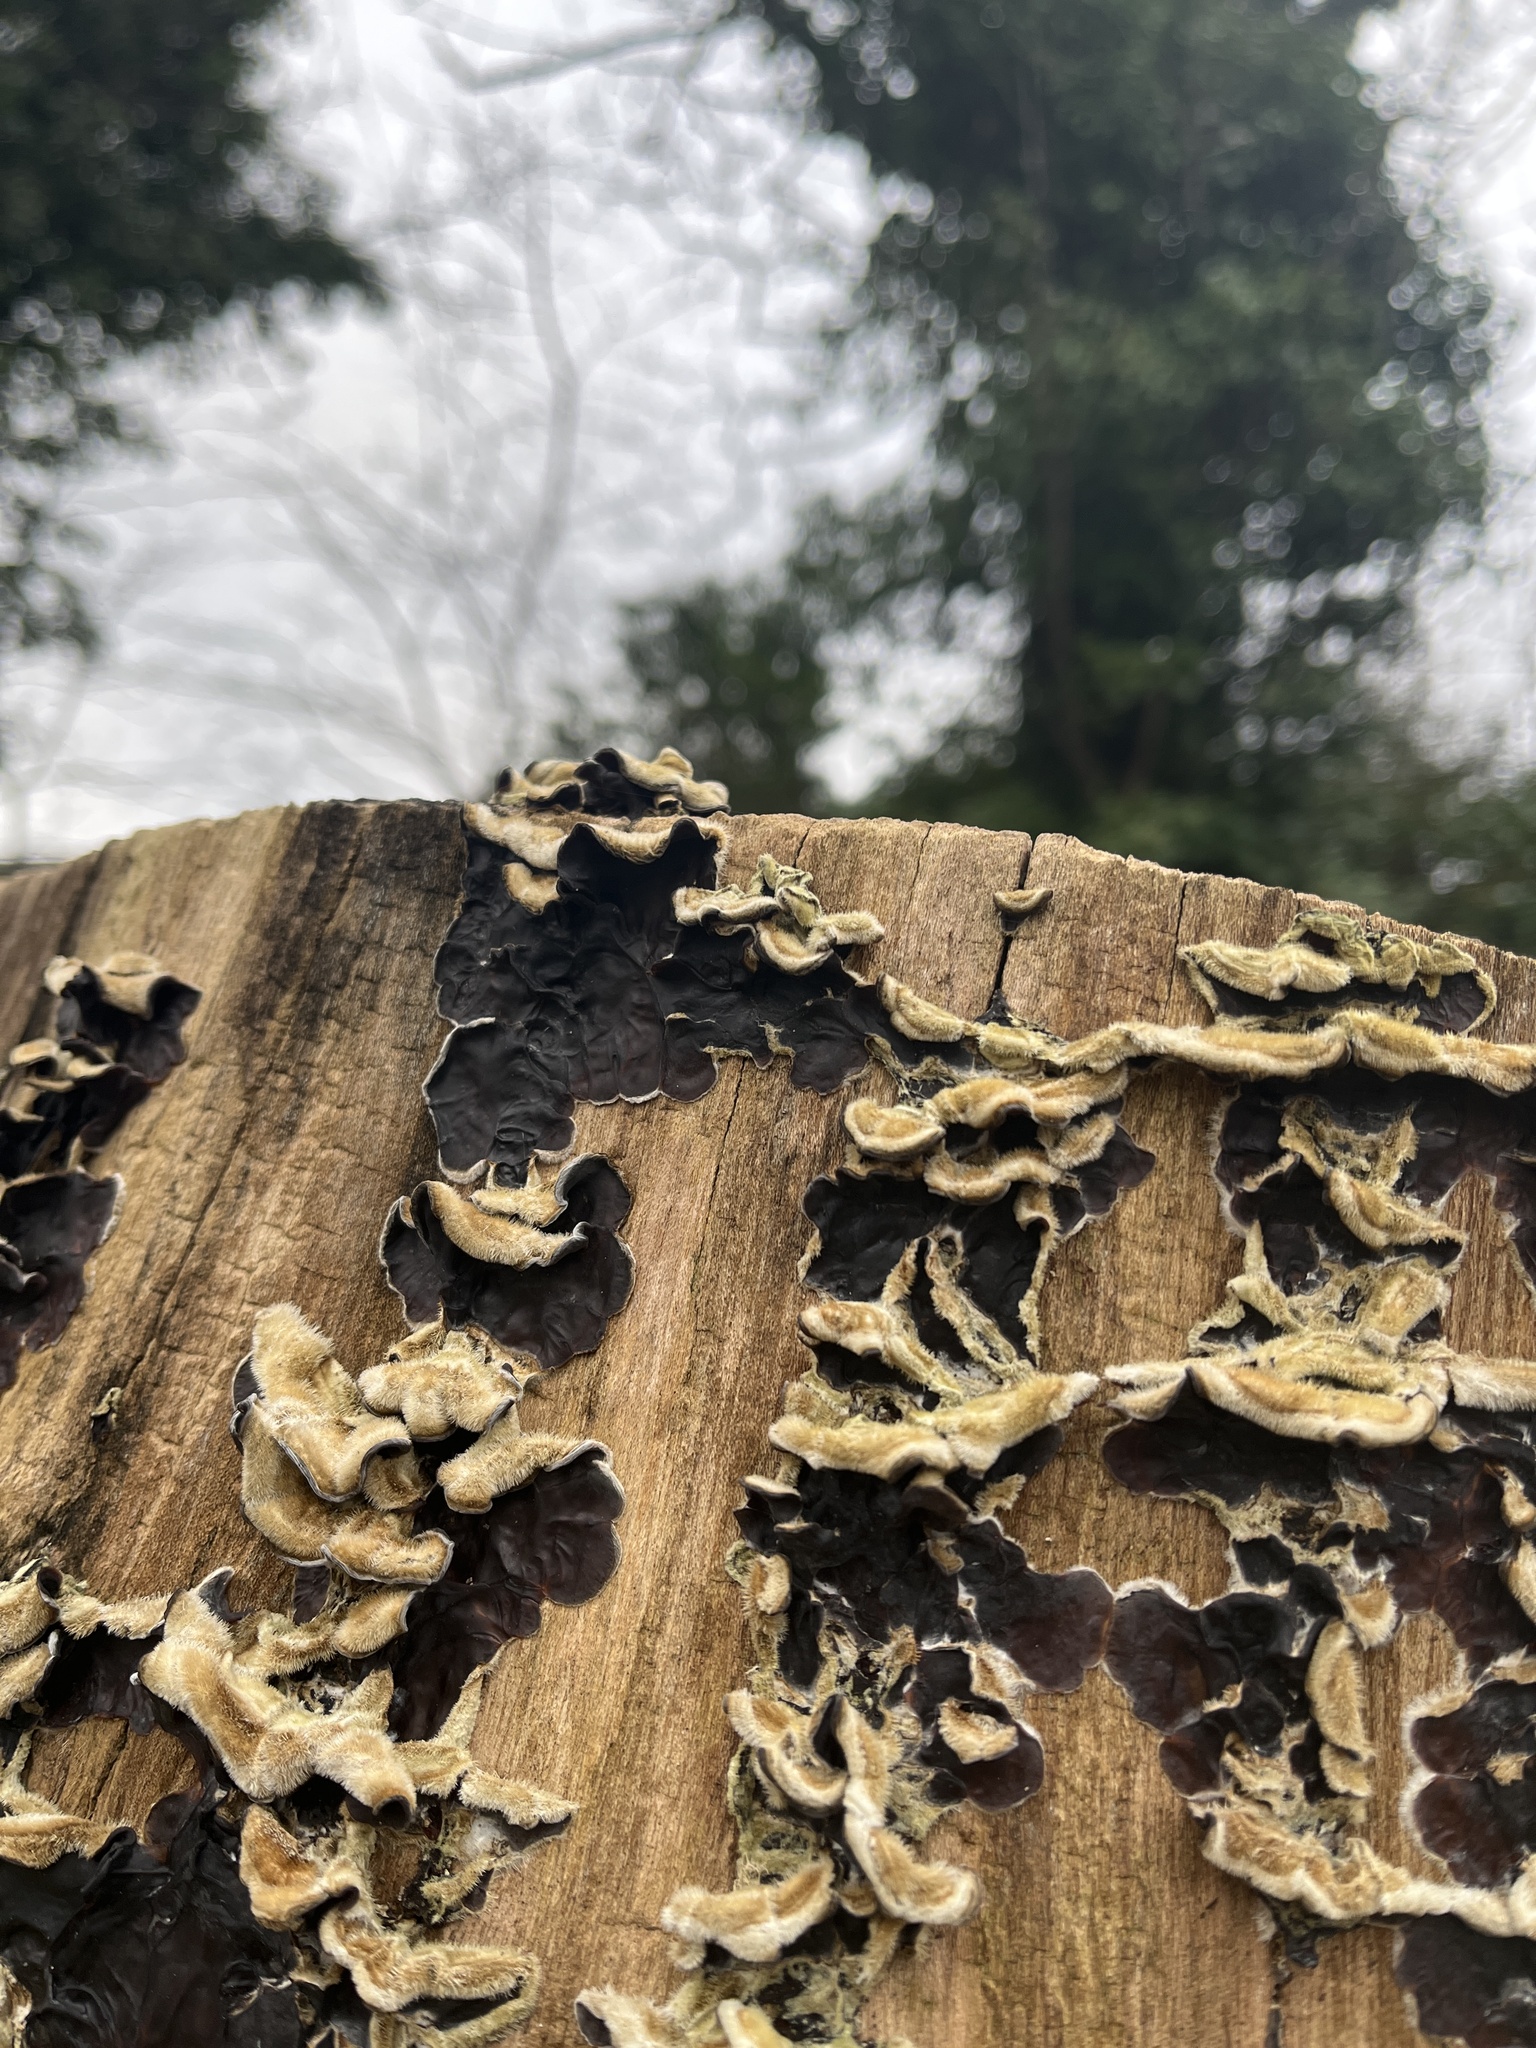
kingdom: Fungi
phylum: Basidiomycota
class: Agaricomycetes
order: Auriculariales
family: Auriculariaceae
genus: Auricularia
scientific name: Auricularia mesenterica
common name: Tripe fungus
